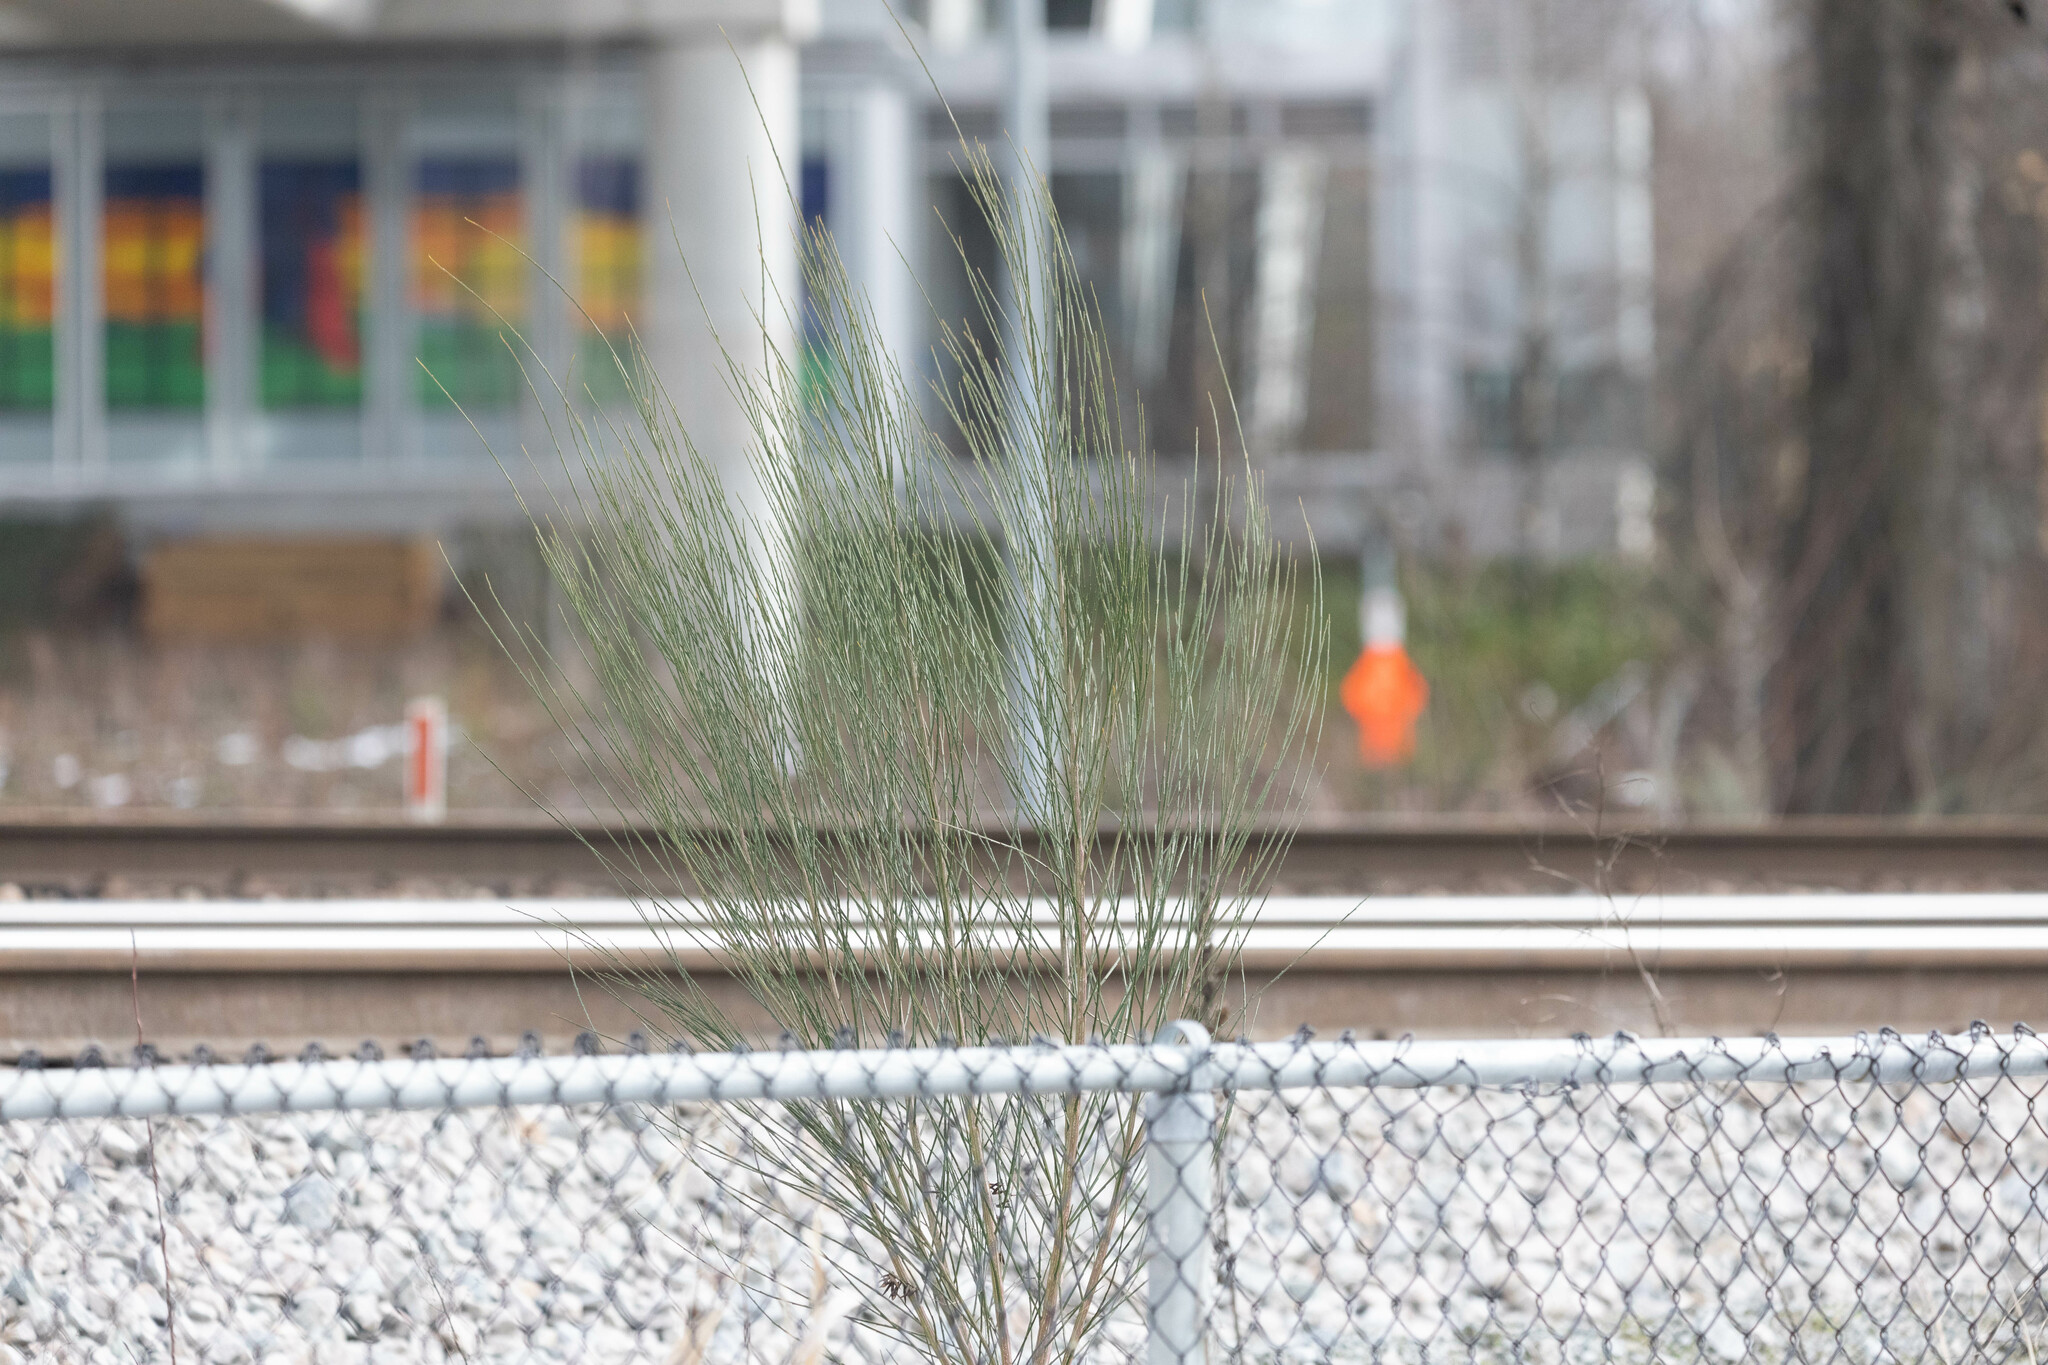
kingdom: Plantae
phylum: Tracheophyta
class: Magnoliopsida
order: Fabales
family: Fabaceae
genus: Cytisus
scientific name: Cytisus scoparius
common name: Scotch broom
